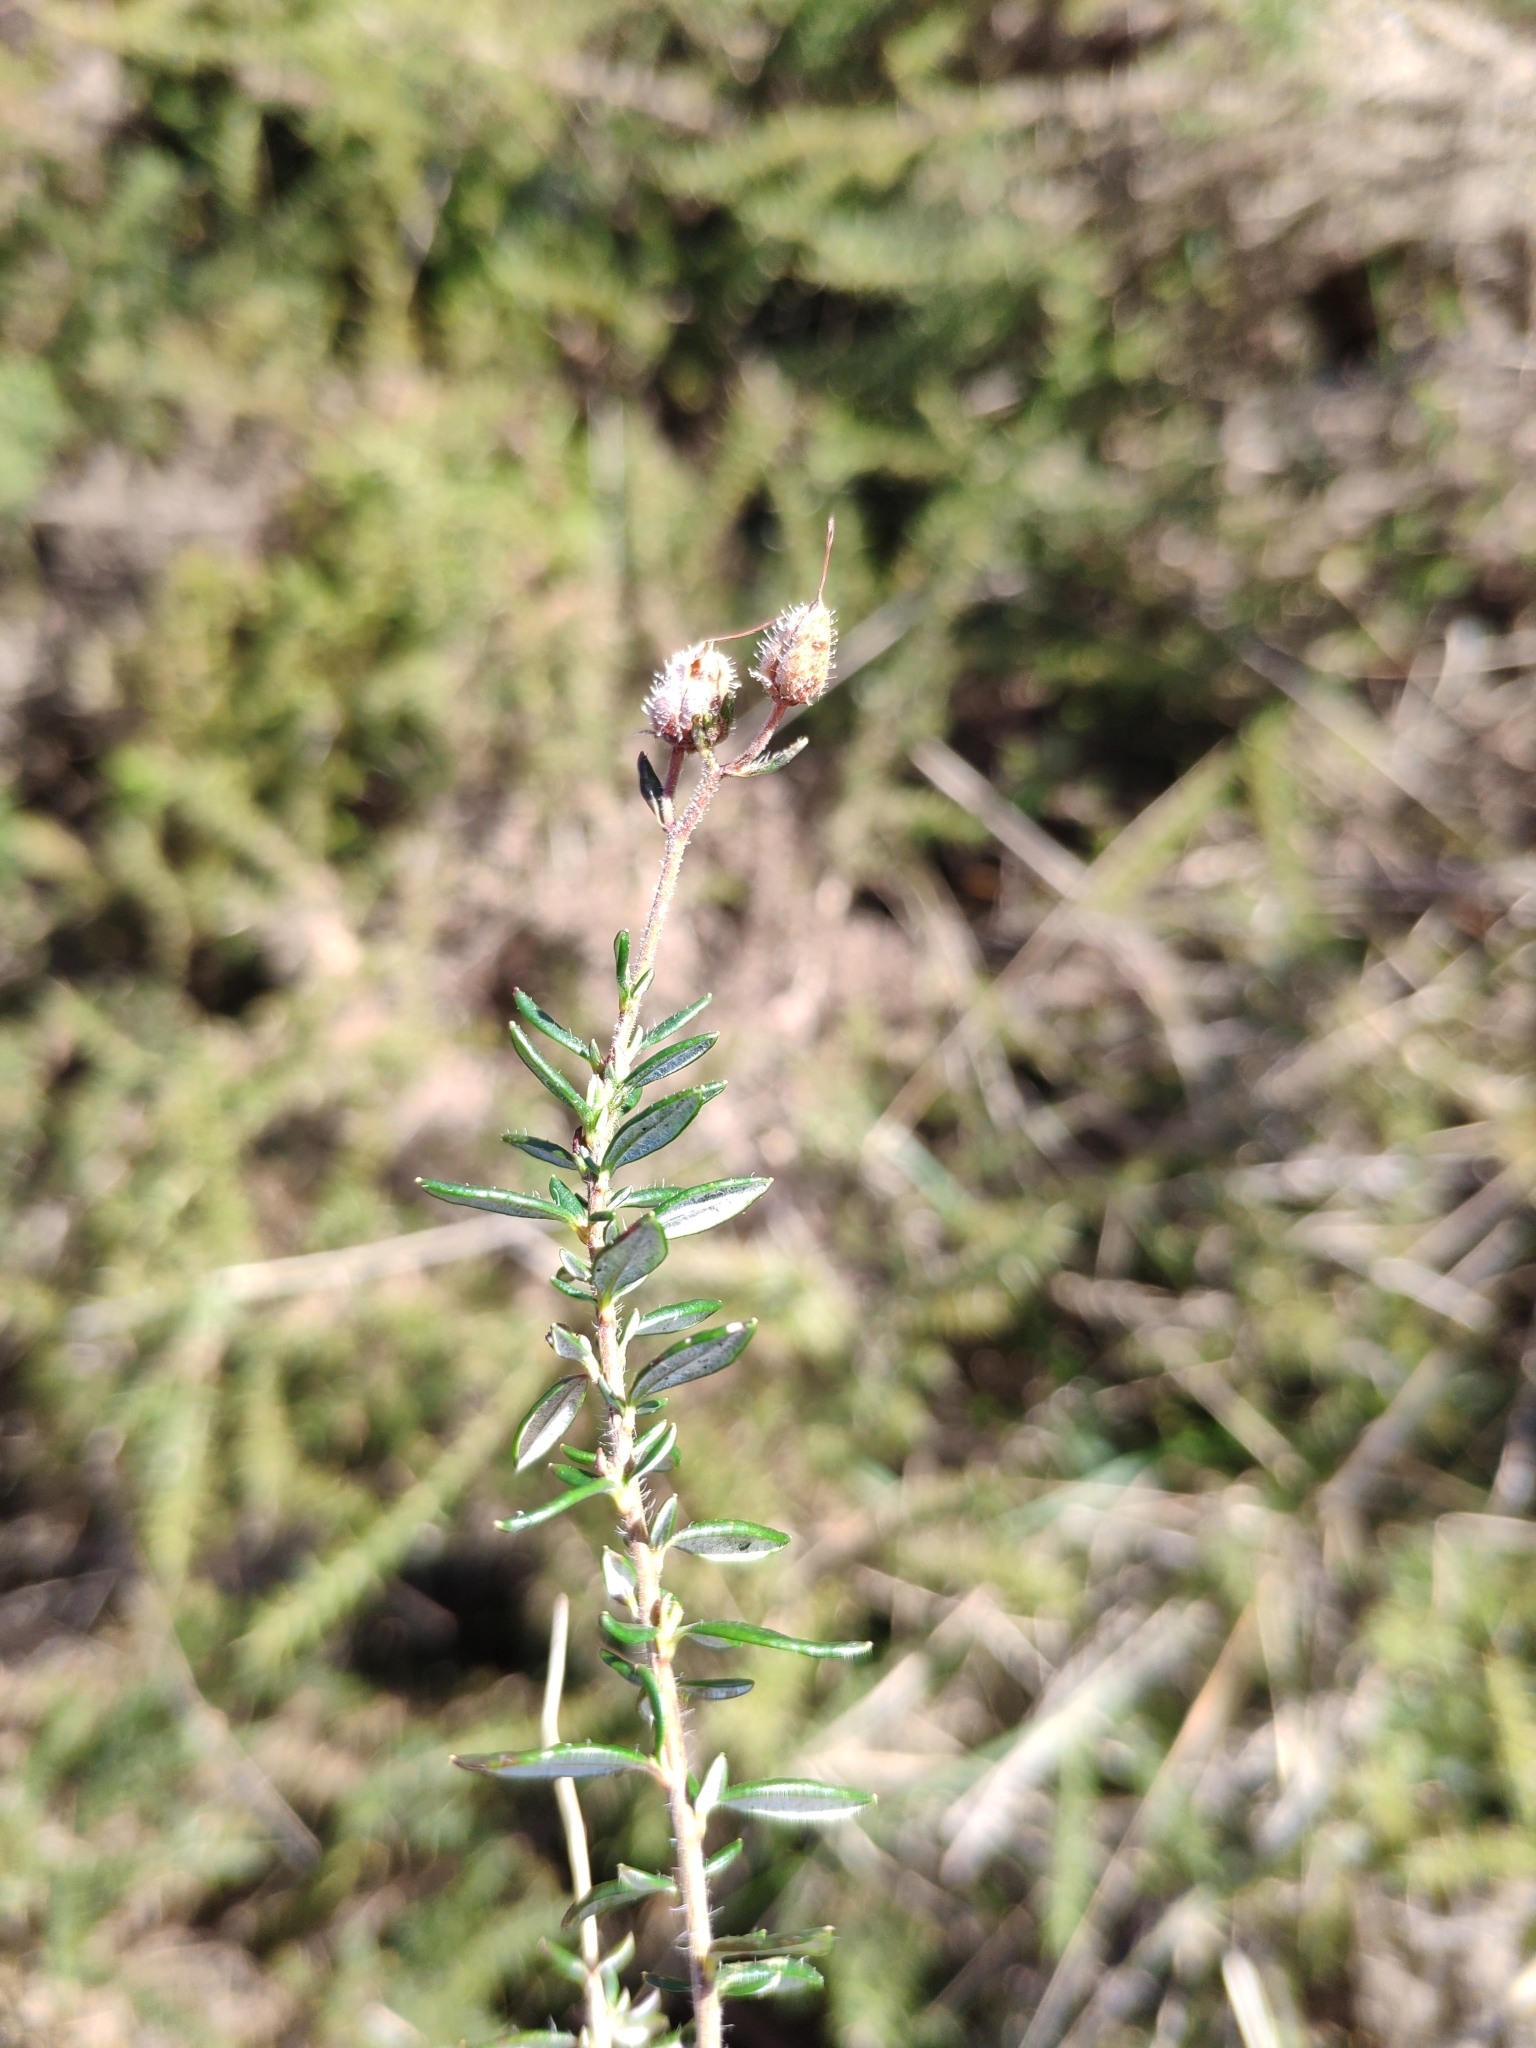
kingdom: Plantae
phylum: Tracheophyta
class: Magnoliopsida
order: Ericales
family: Ericaceae
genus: Daboecia
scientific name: Daboecia cantabrica
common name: St. dabeoc's-heath
